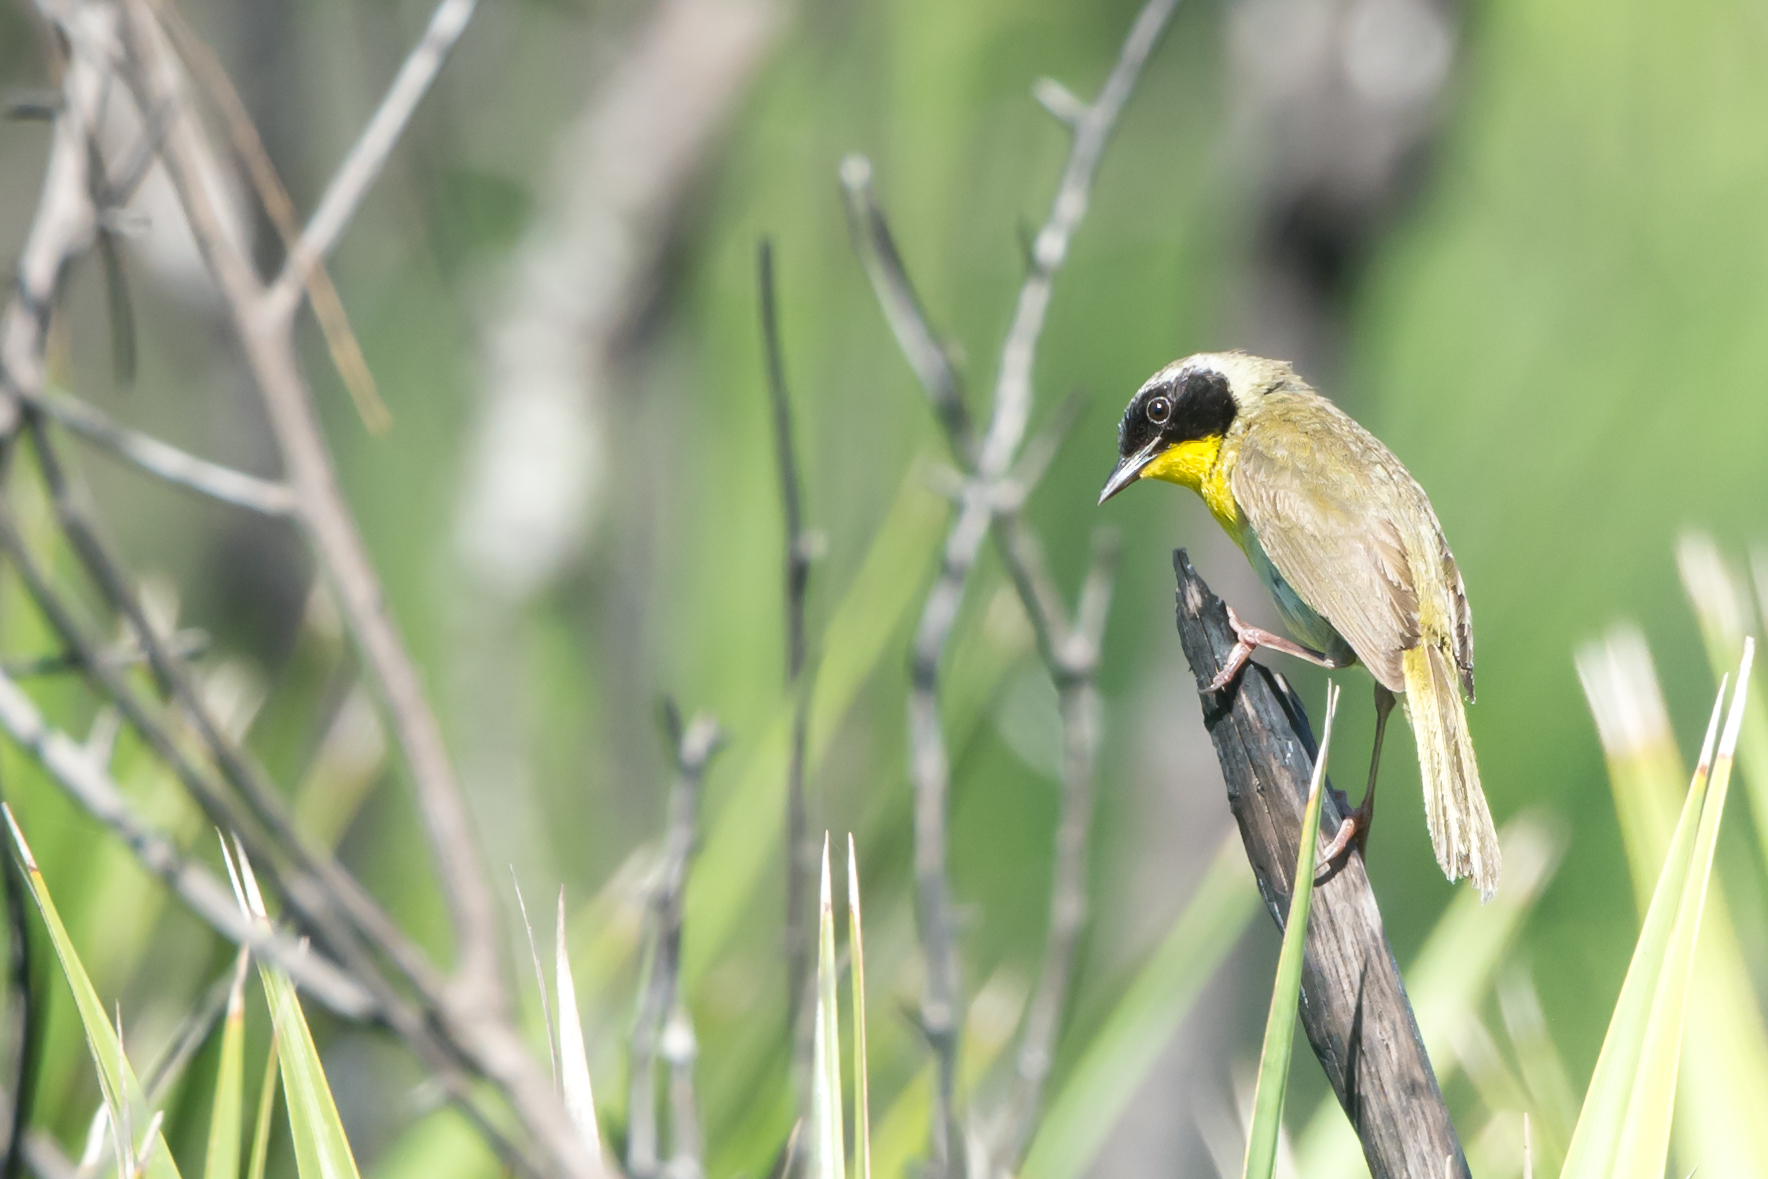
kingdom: Animalia
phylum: Chordata
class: Aves
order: Passeriformes
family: Parulidae
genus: Geothlypis
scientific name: Geothlypis trichas
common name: Common yellowthroat
